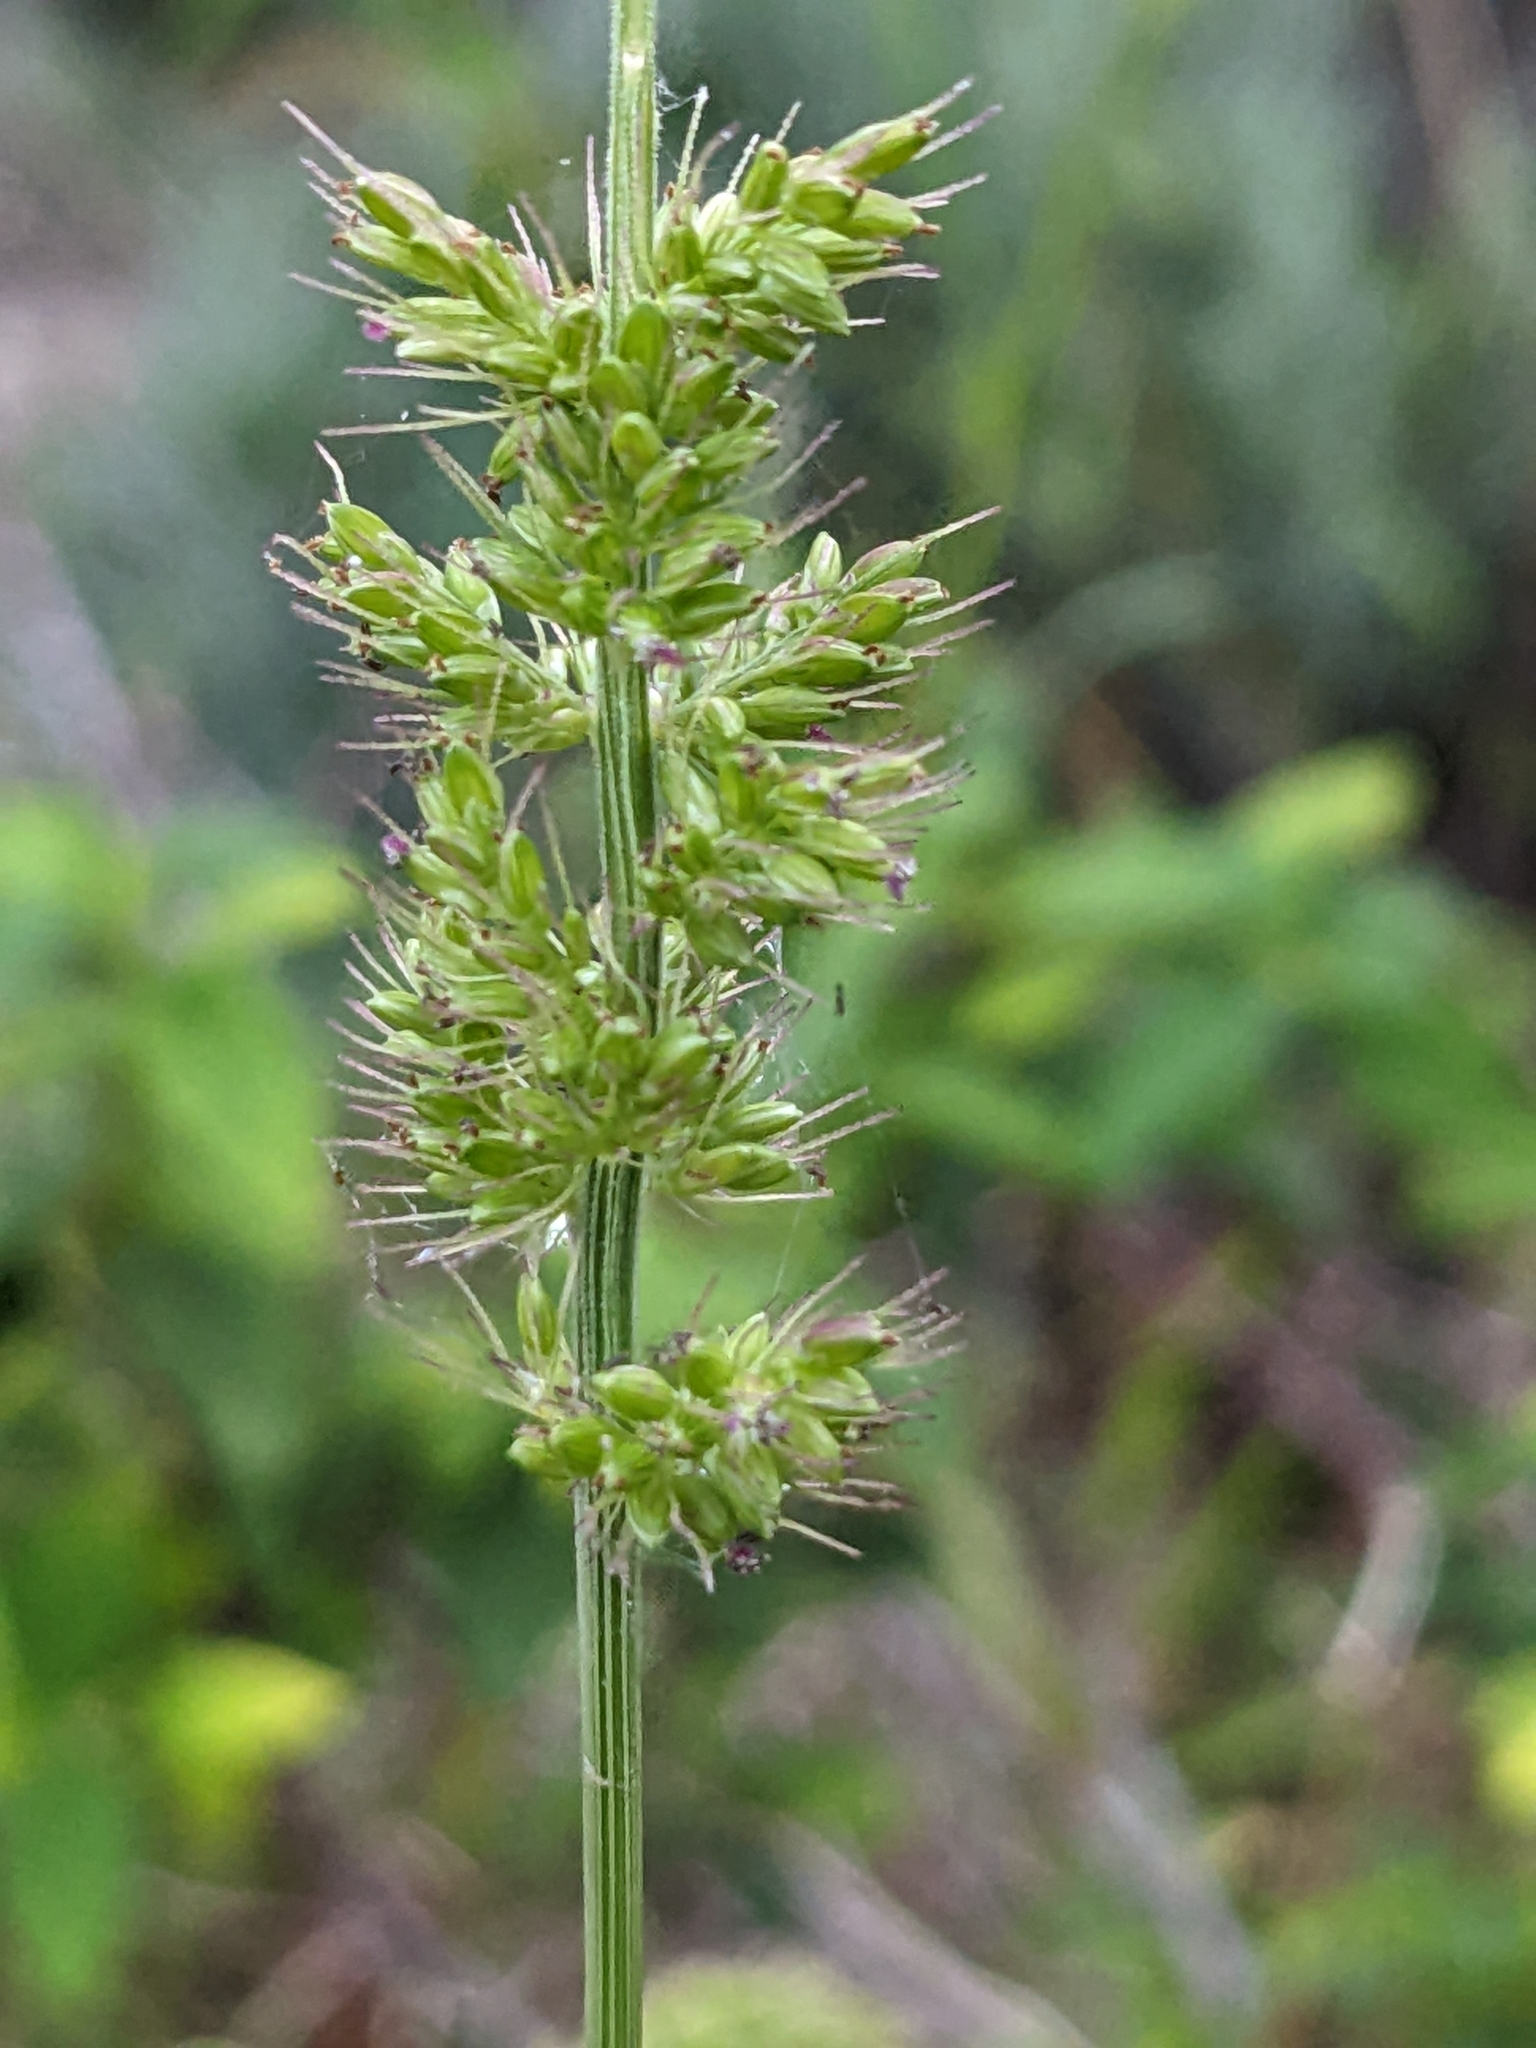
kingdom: Plantae
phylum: Tracheophyta
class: Liliopsida
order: Poales
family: Poaceae
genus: Setaria
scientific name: Setaria verticillata
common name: Hooked bristlegrass
